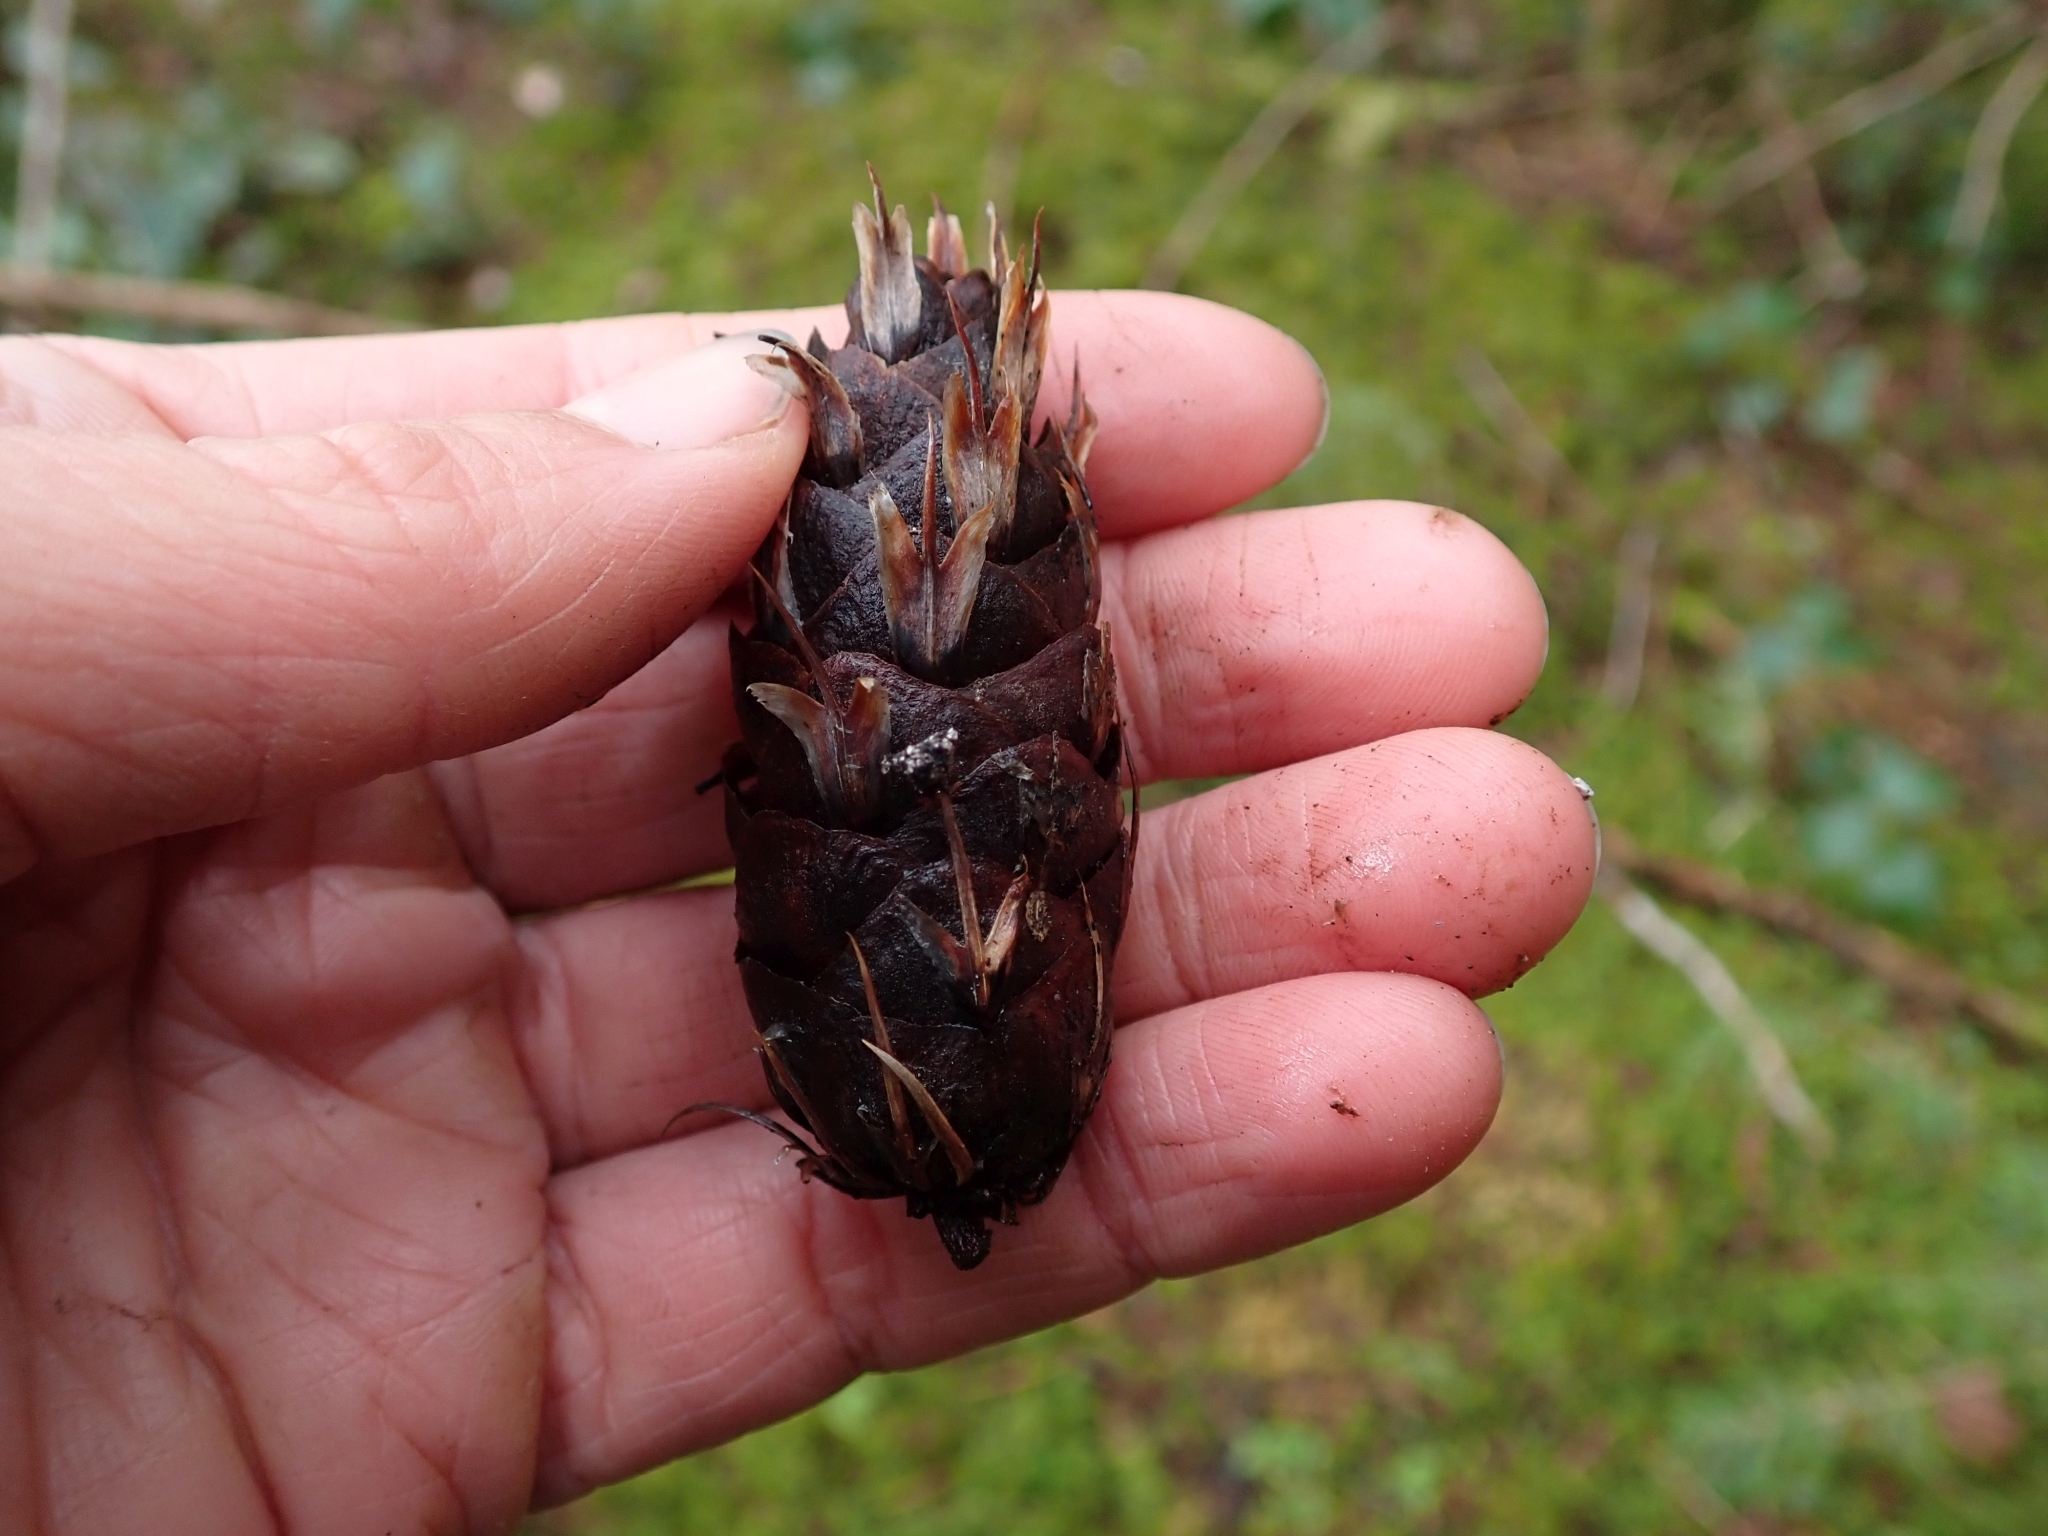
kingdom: Plantae
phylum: Tracheophyta
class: Pinopsida
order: Pinales
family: Pinaceae
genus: Pseudotsuga
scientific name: Pseudotsuga menziesii
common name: Douglas fir
